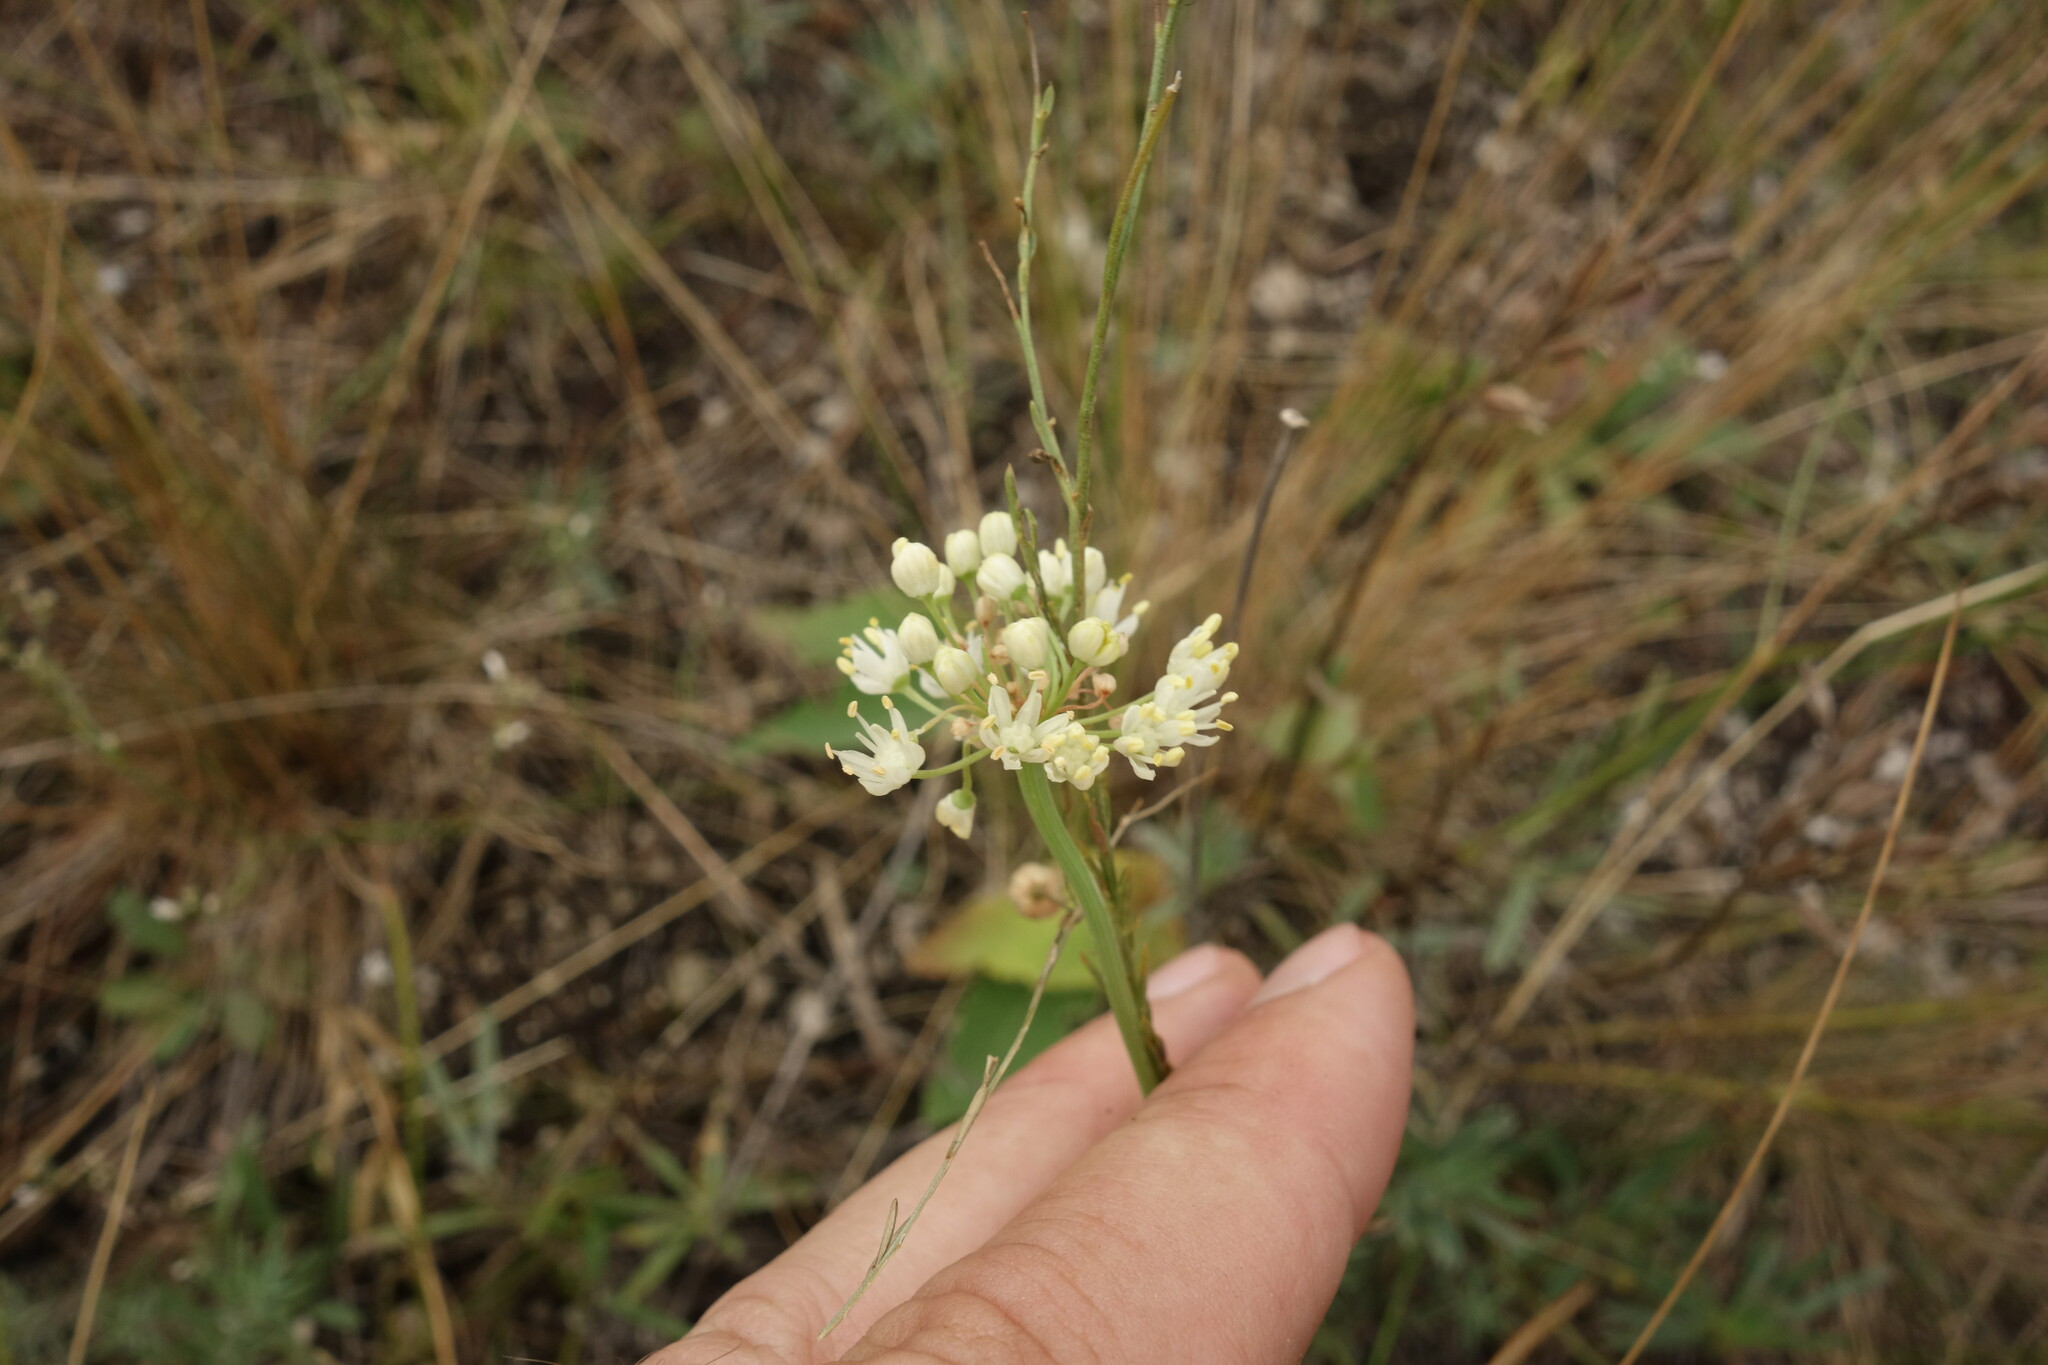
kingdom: Plantae
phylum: Tracheophyta
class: Liliopsida
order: Asparagales
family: Amaryllidaceae
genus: Allium
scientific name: Allium flavescens
